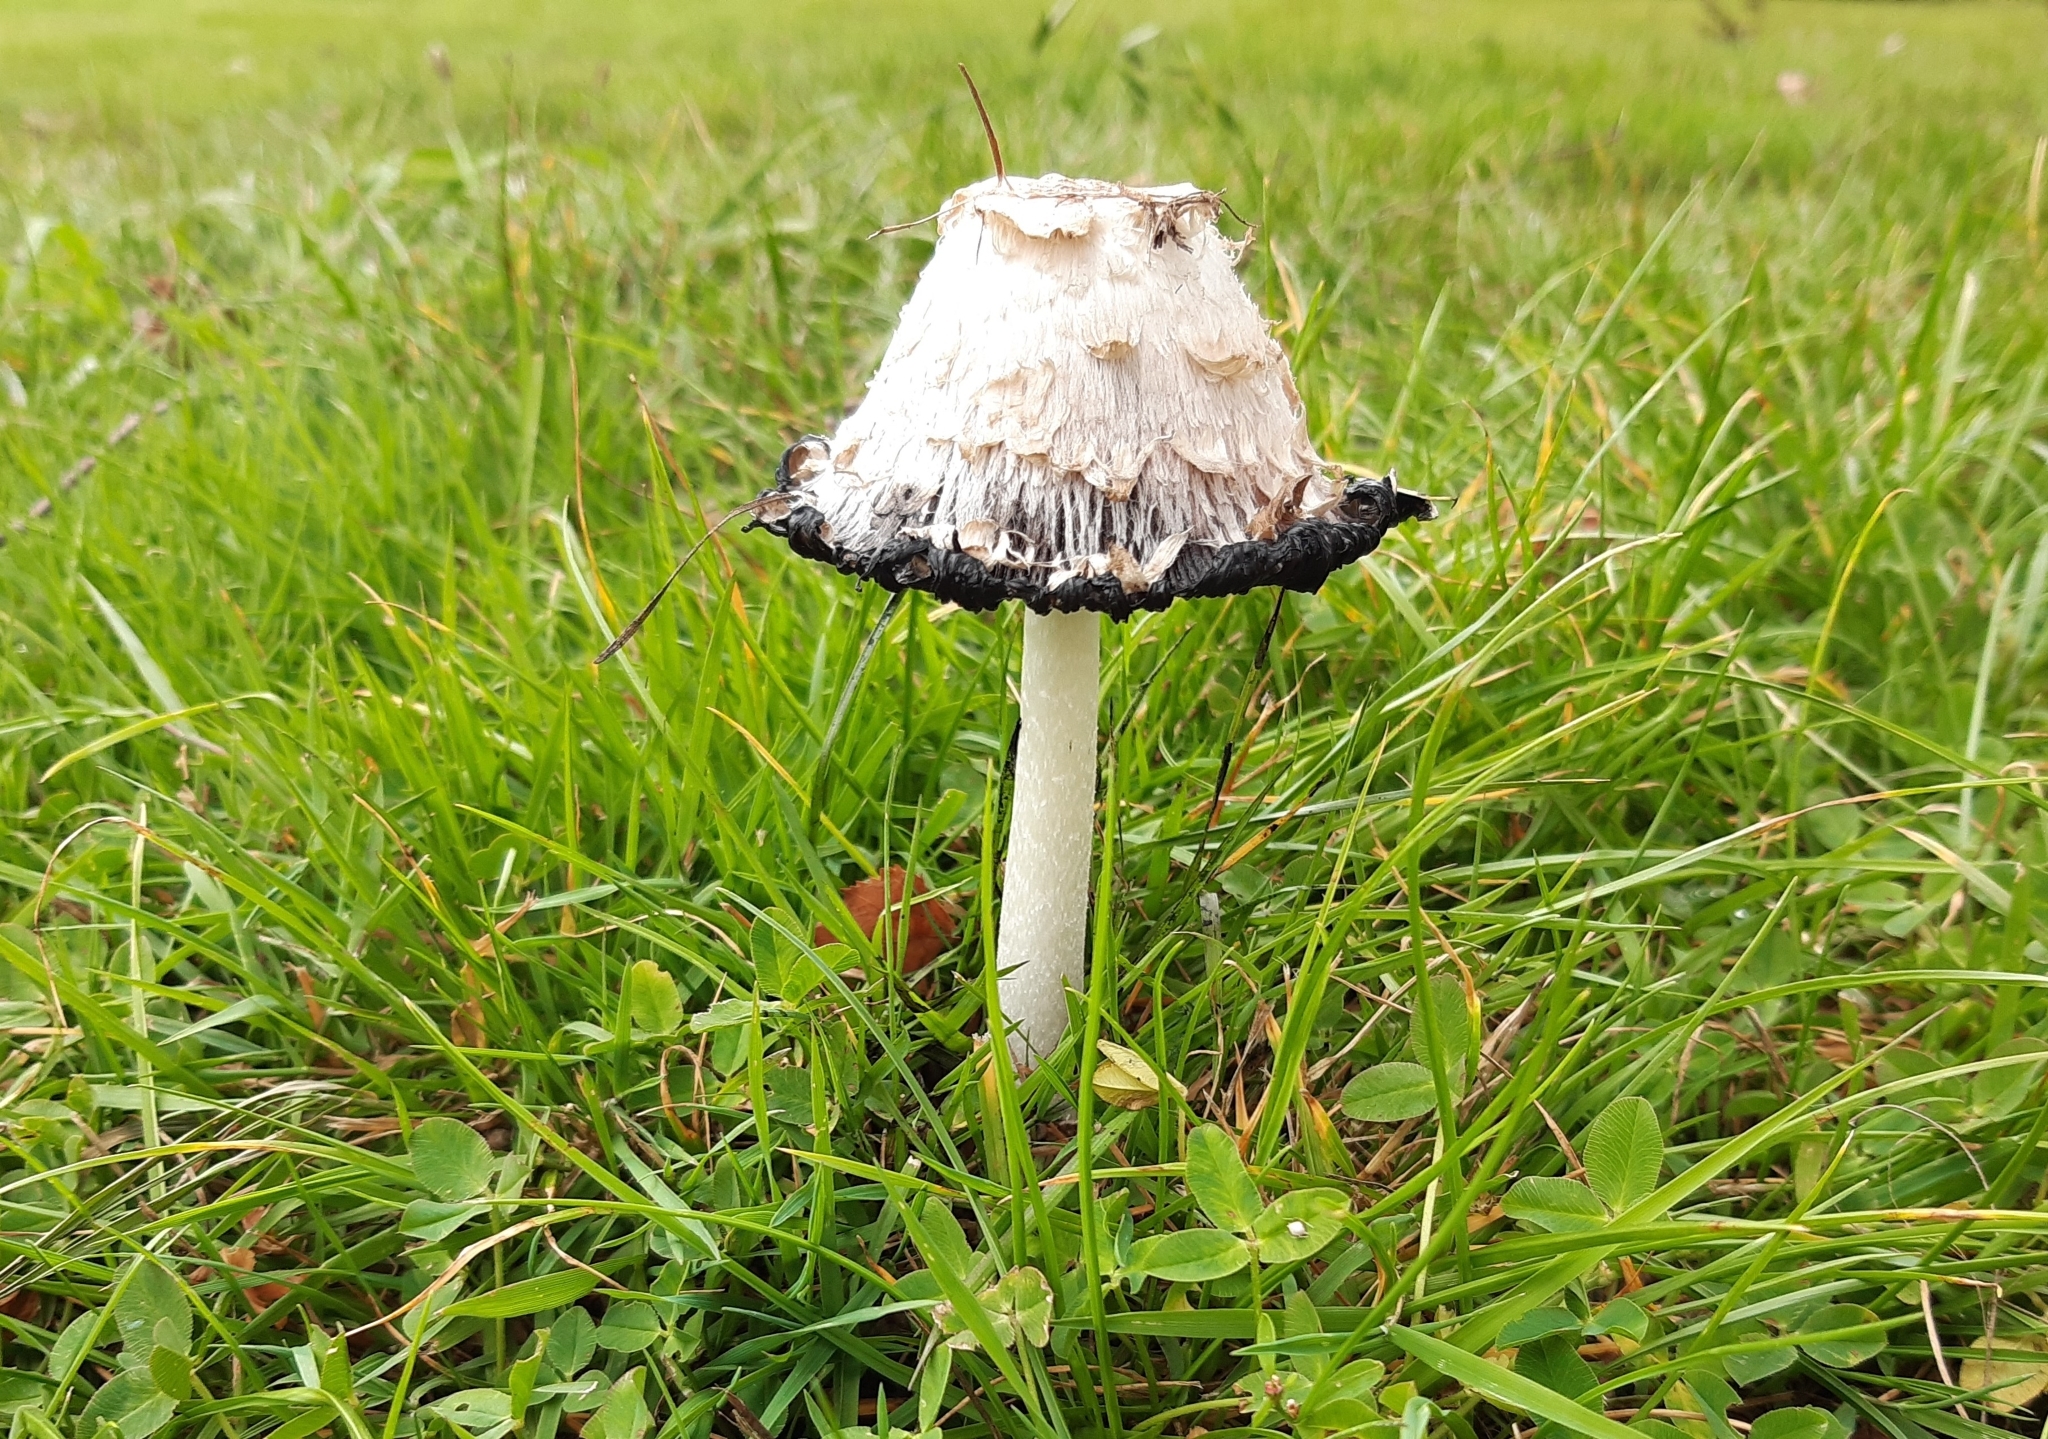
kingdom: Fungi
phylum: Basidiomycota
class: Agaricomycetes
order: Agaricales
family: Agaricaceae
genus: Coprinus
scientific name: Coprinus comatus
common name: Lawyer's wig
